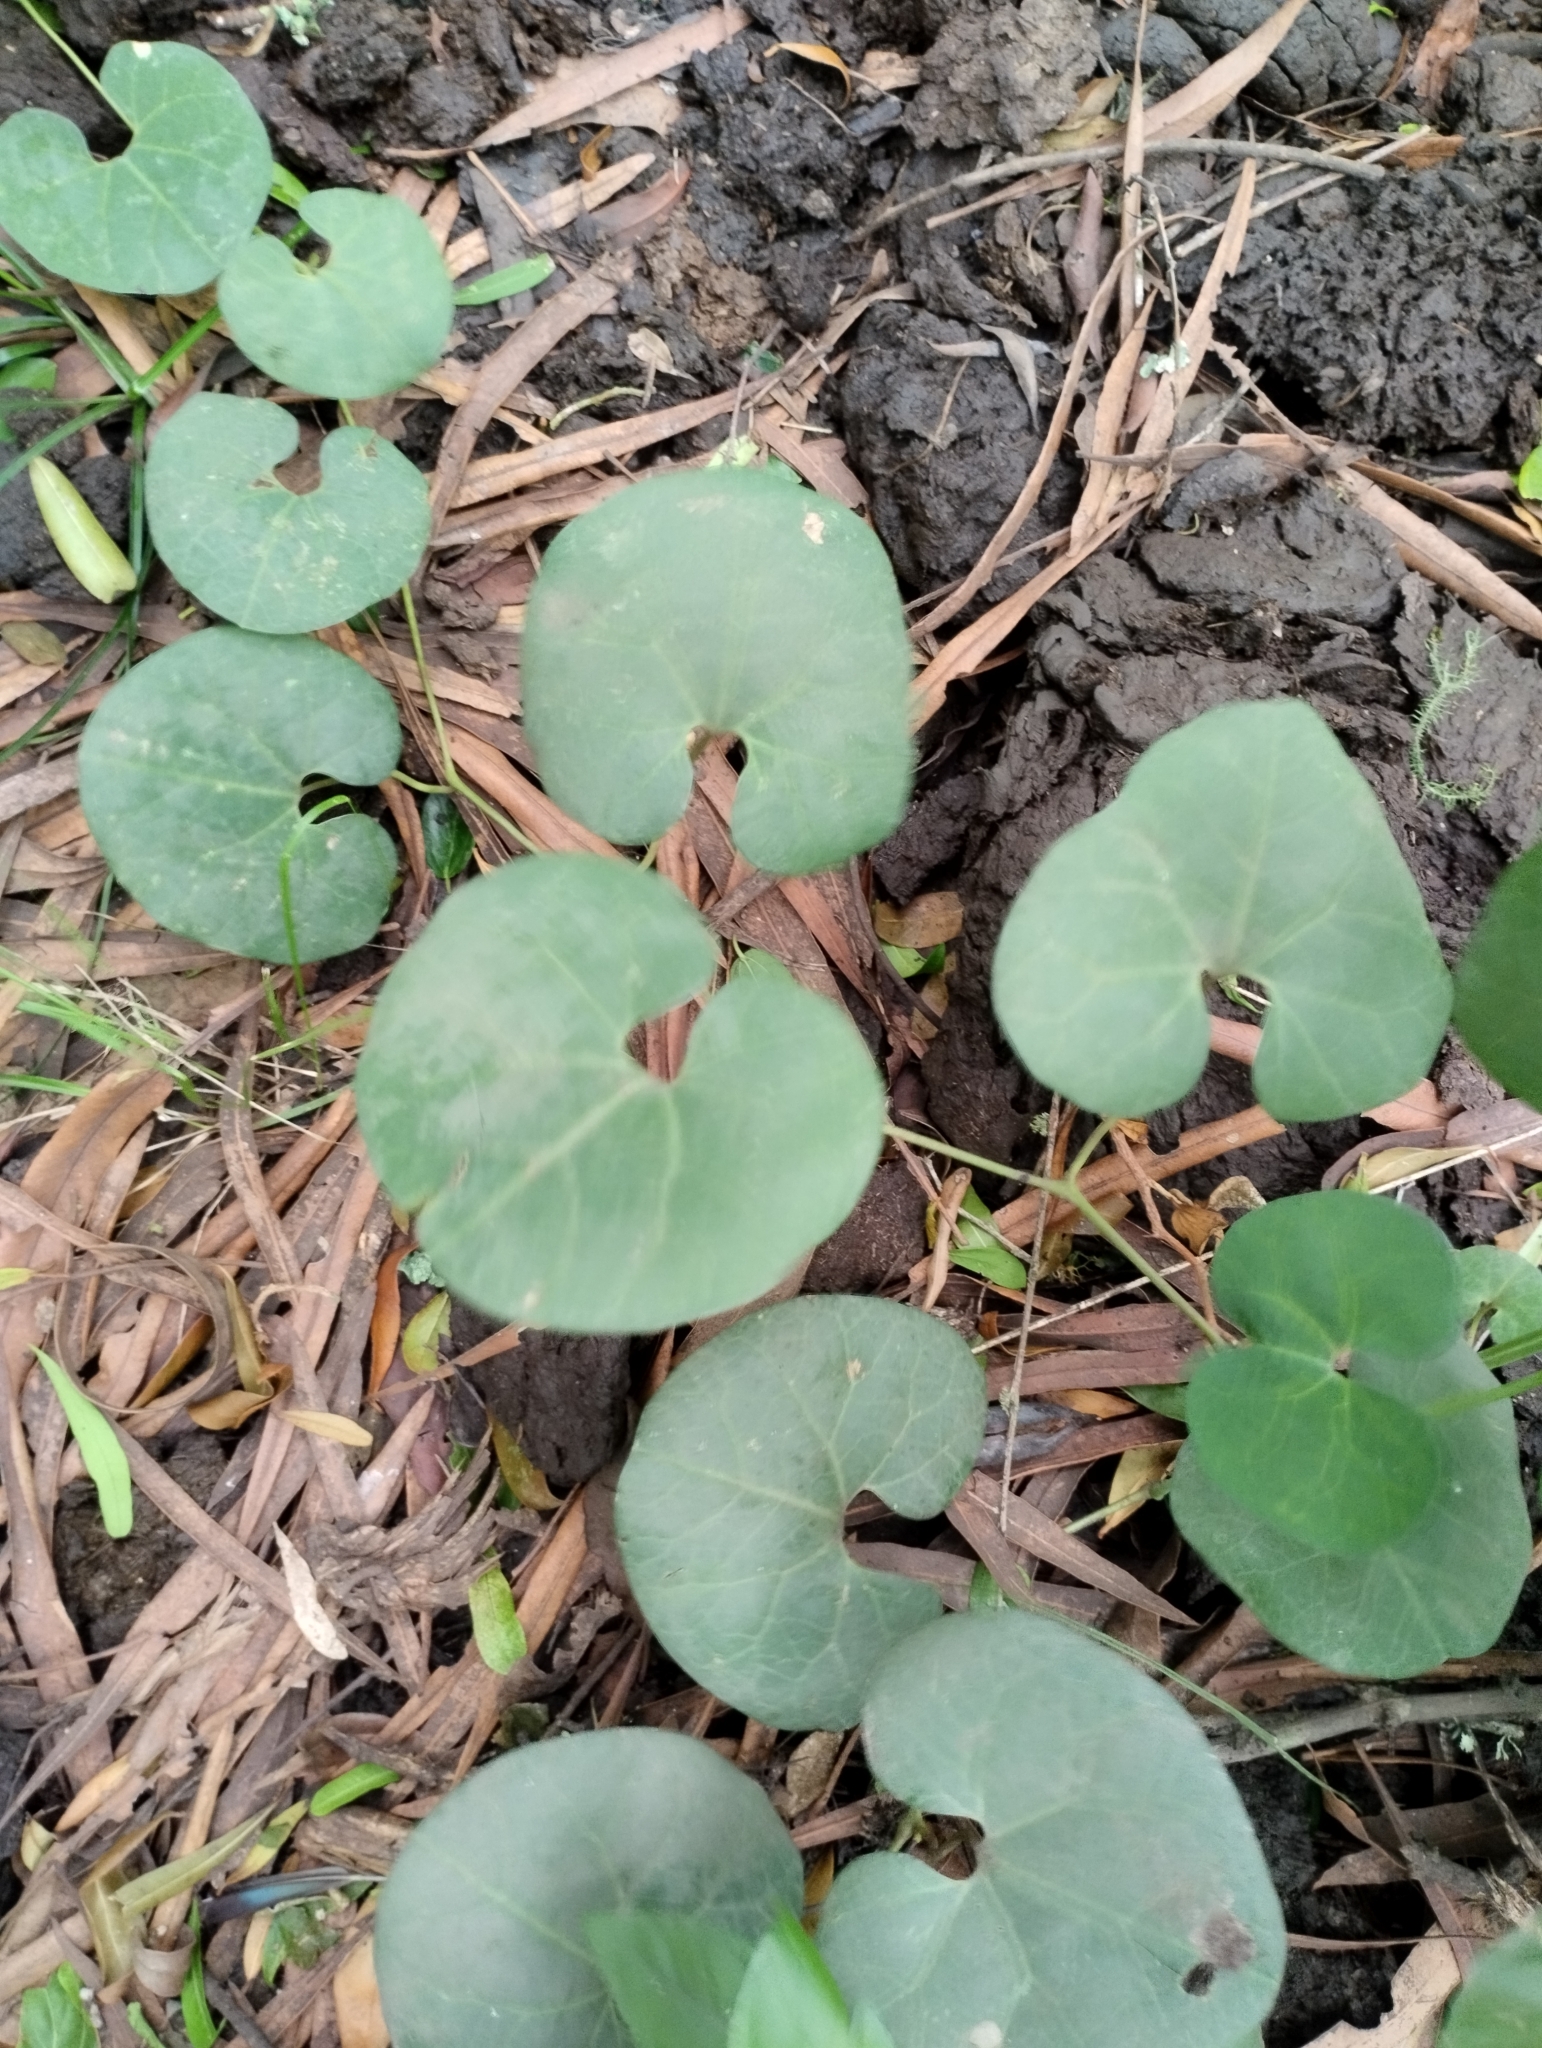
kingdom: Plantae
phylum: Tracheophyta
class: Magnoliopsida
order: Piperales
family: Aristolochiaceae
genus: Aristolochia
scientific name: Aristolochia fimbriata
